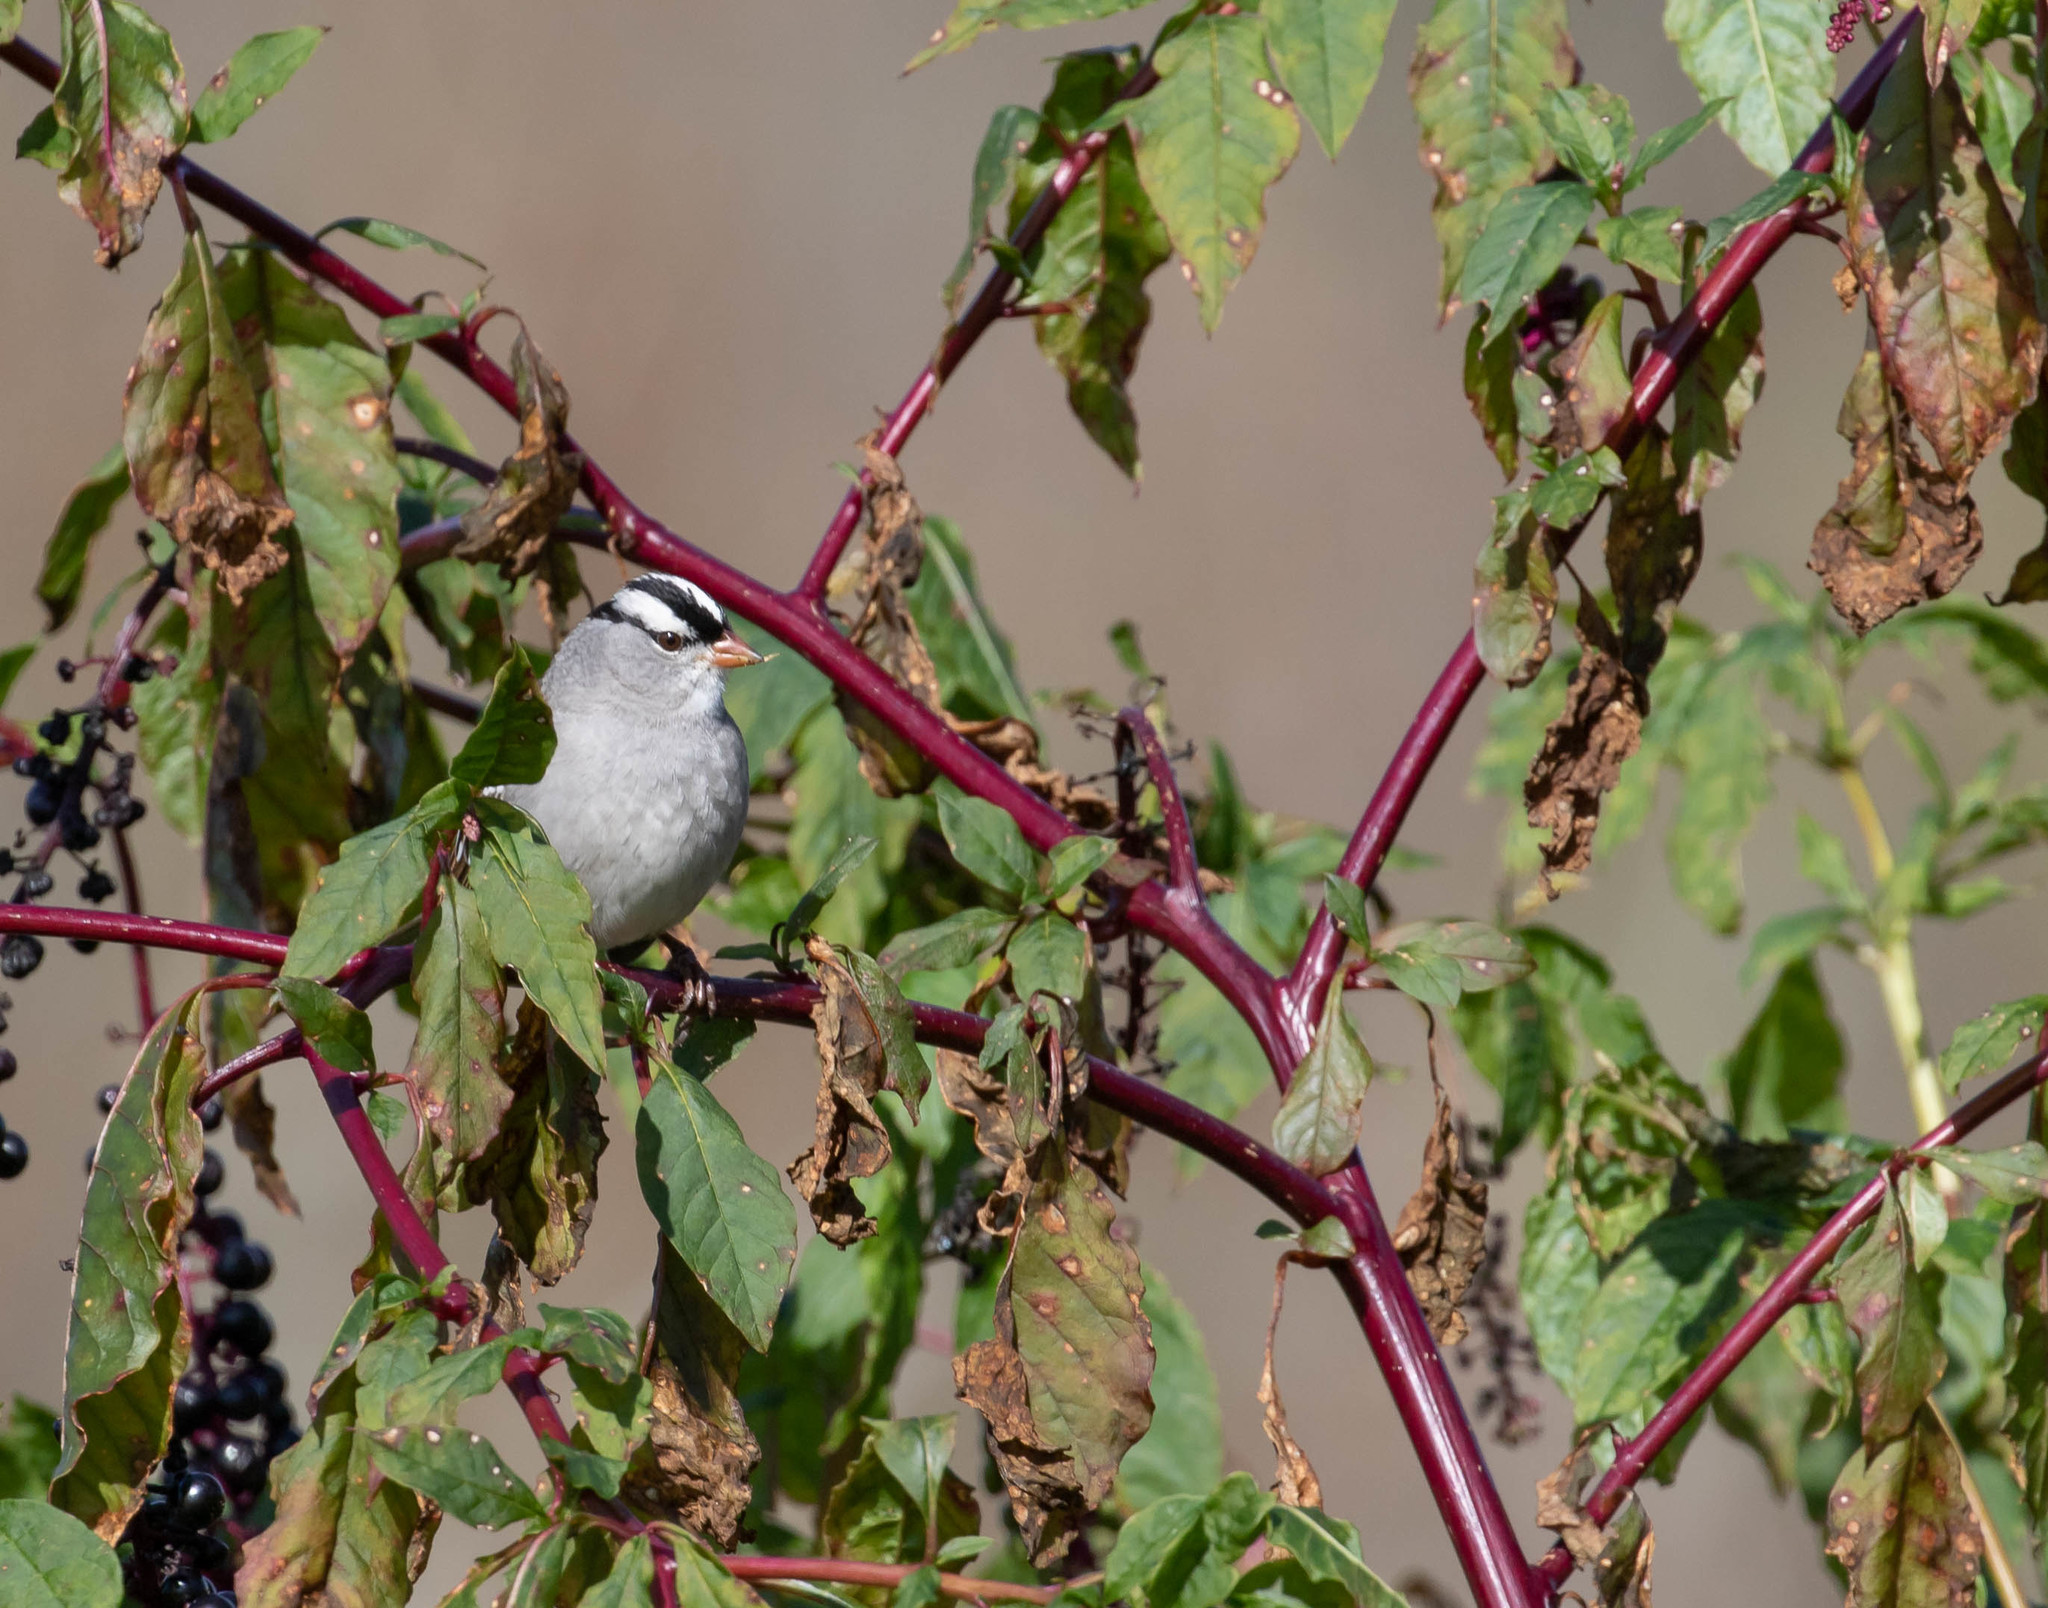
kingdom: Animalia
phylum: Chordata
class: Aves
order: Passeriformes
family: Passerellidae
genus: Zonotrichia
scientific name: Zonotrichia leucophrys
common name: White-crowned sparrow
